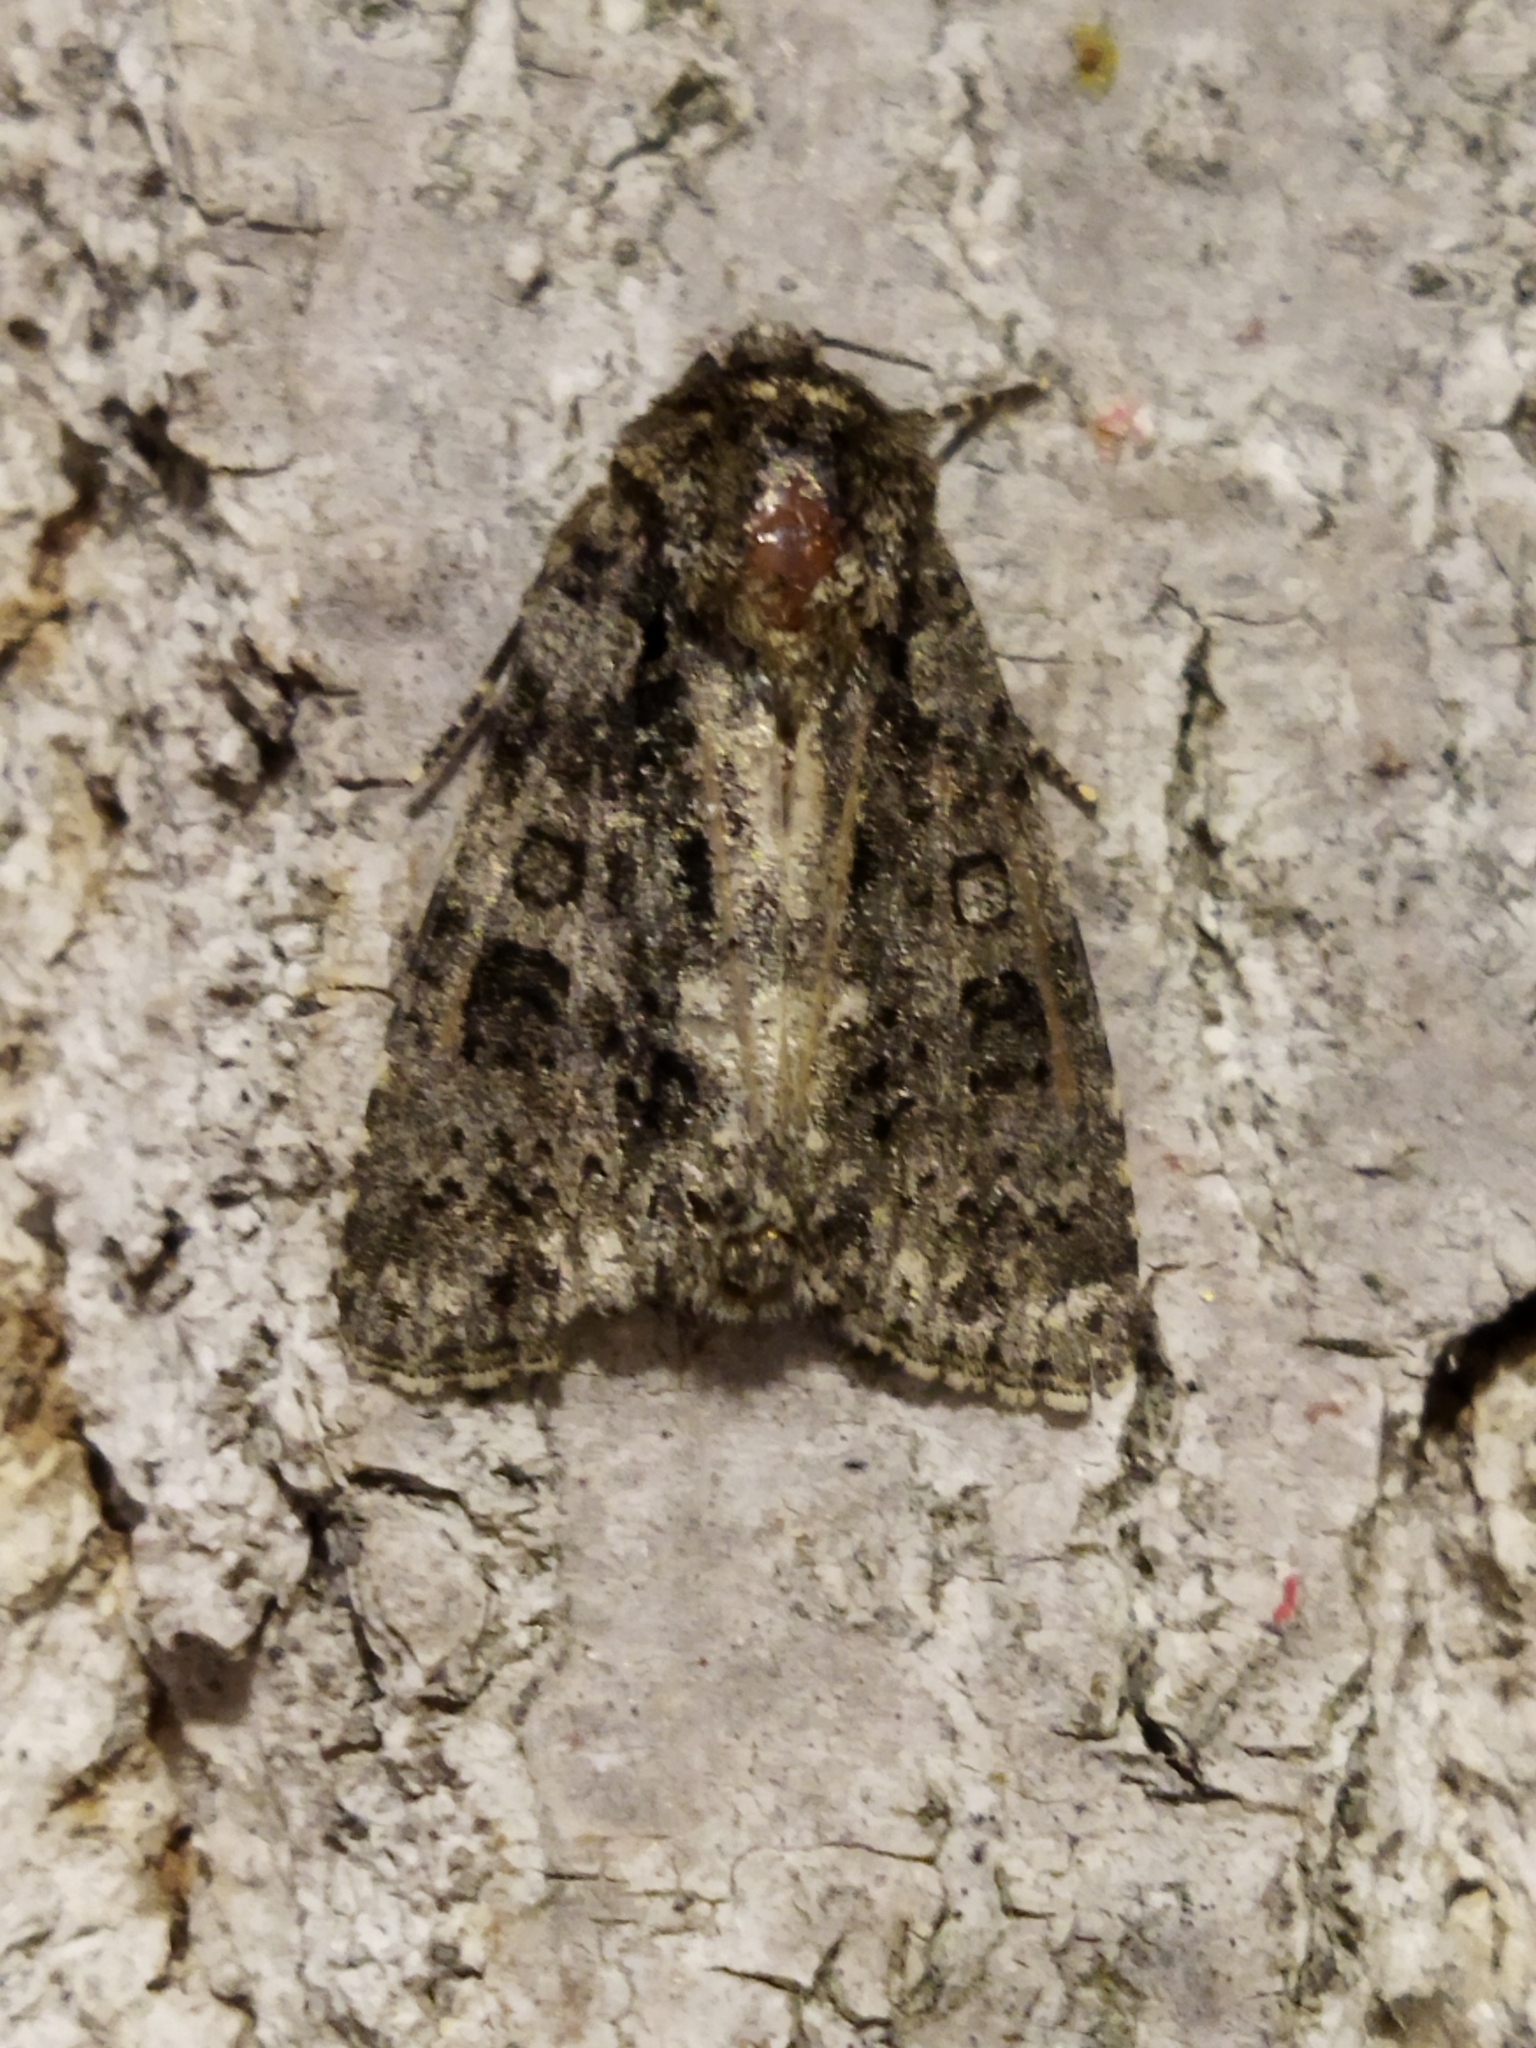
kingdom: Animalia
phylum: Arthropoda
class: Insecta
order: Lepidoptera
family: Noctuidae
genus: Acronicta
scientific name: Acronicta rumicis
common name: Knot grass
